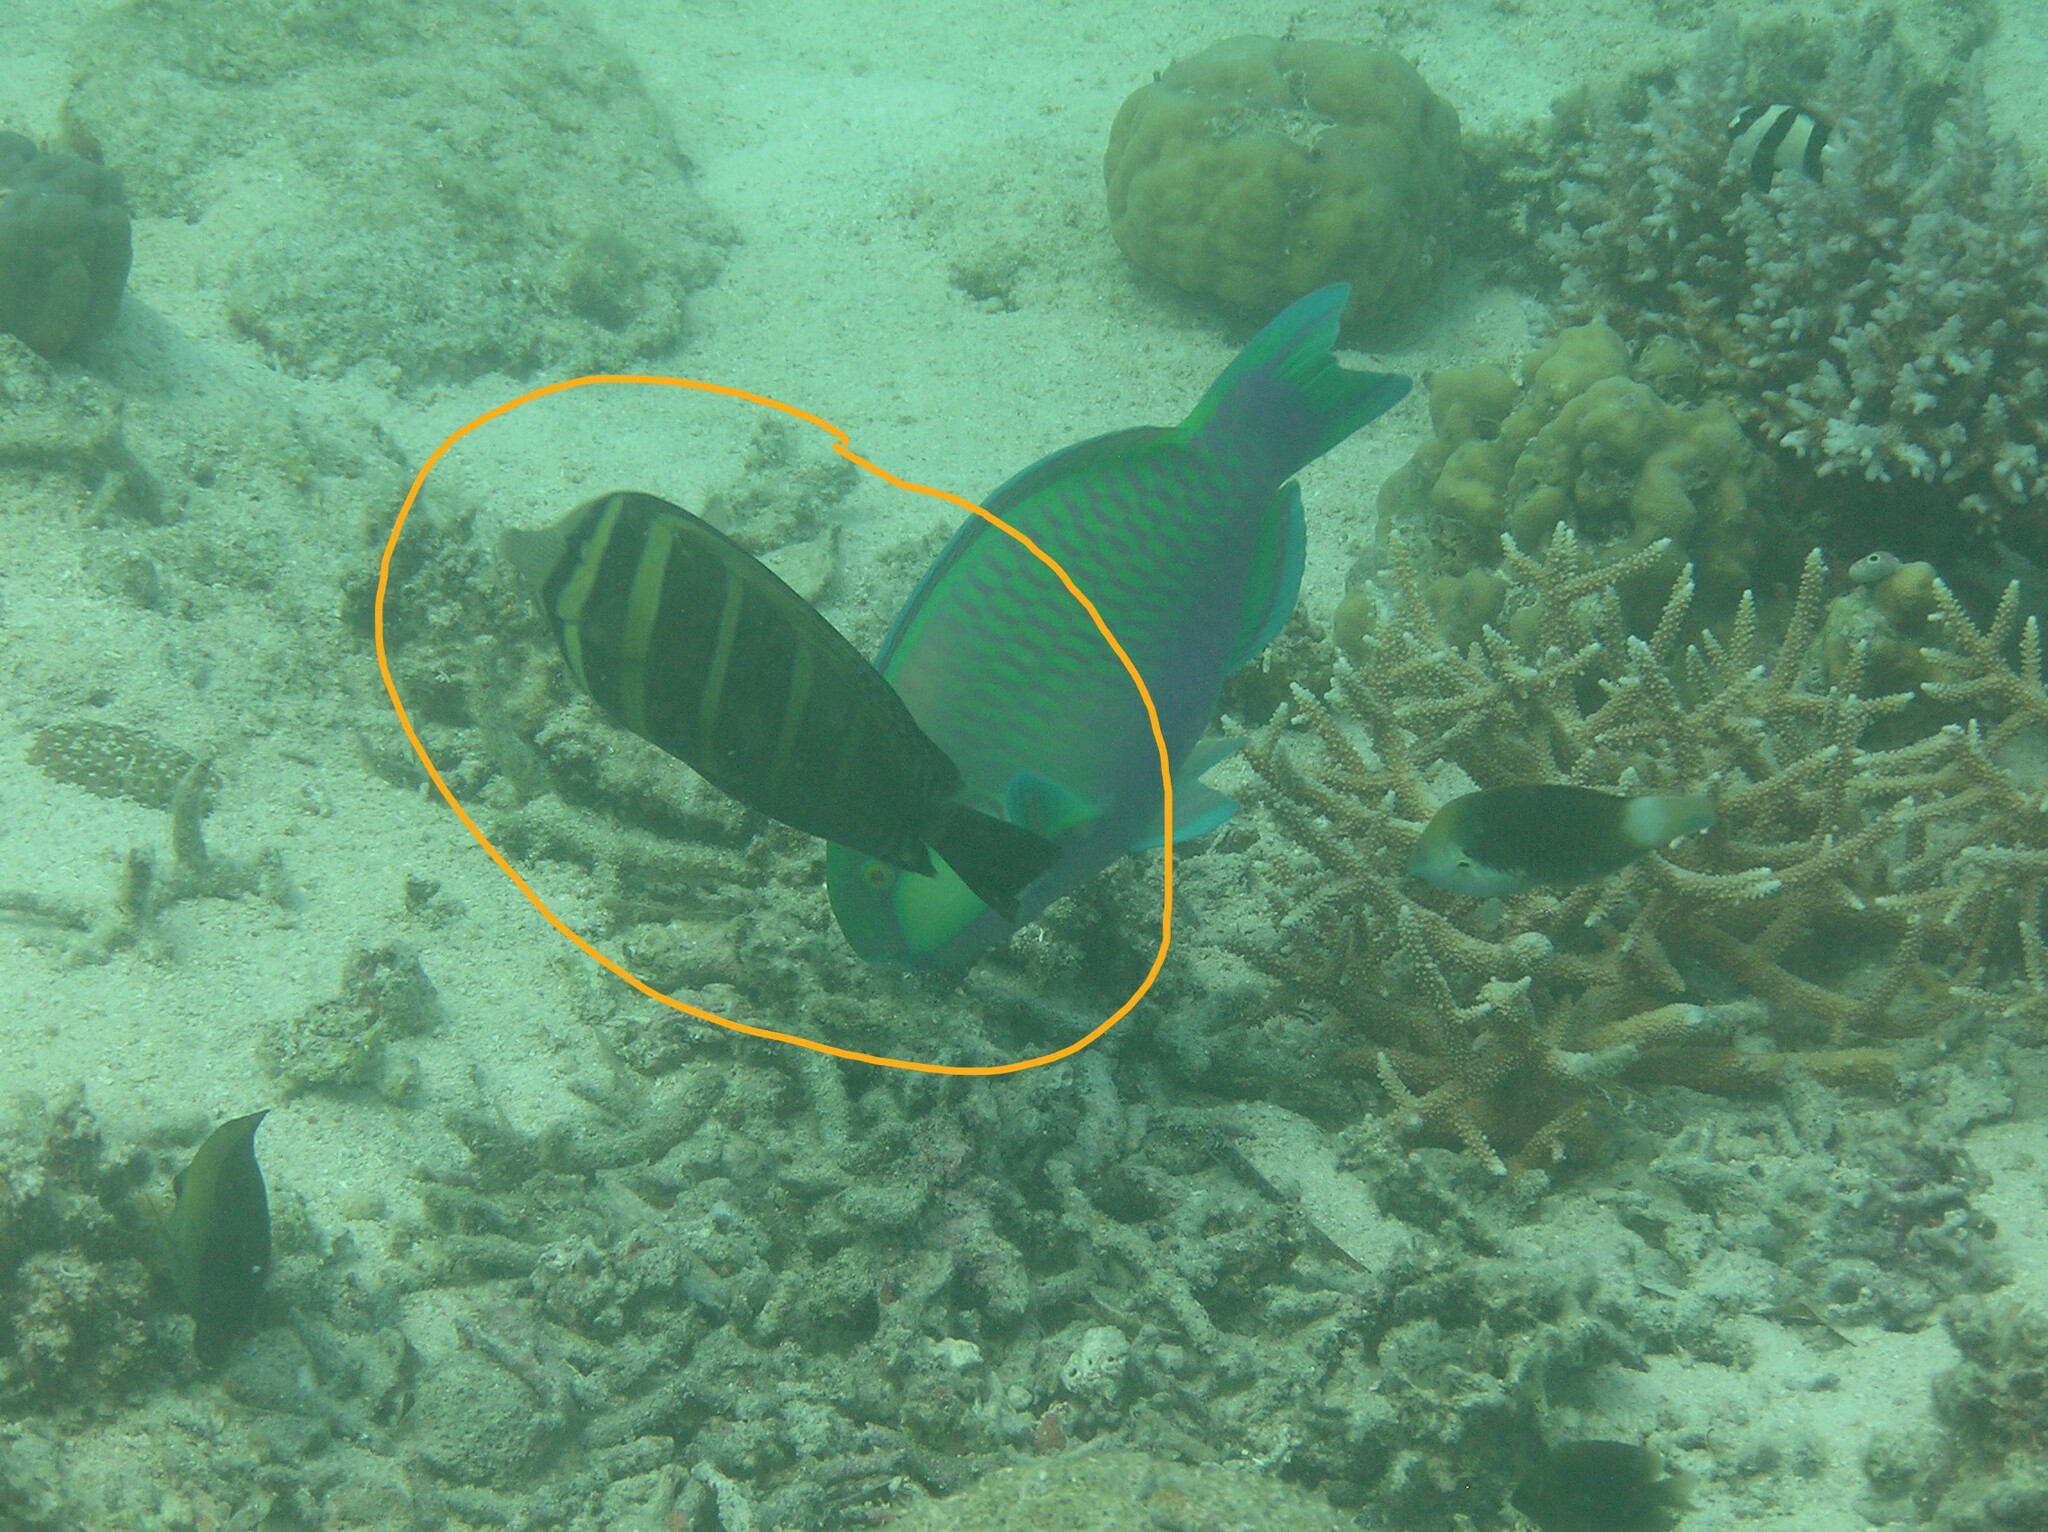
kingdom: Animalia
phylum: Chordata
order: Perciformes
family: Acanthuridae
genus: Zebrasoma
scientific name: Zebrasoma veliferum
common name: Sailfin surgeonfish
